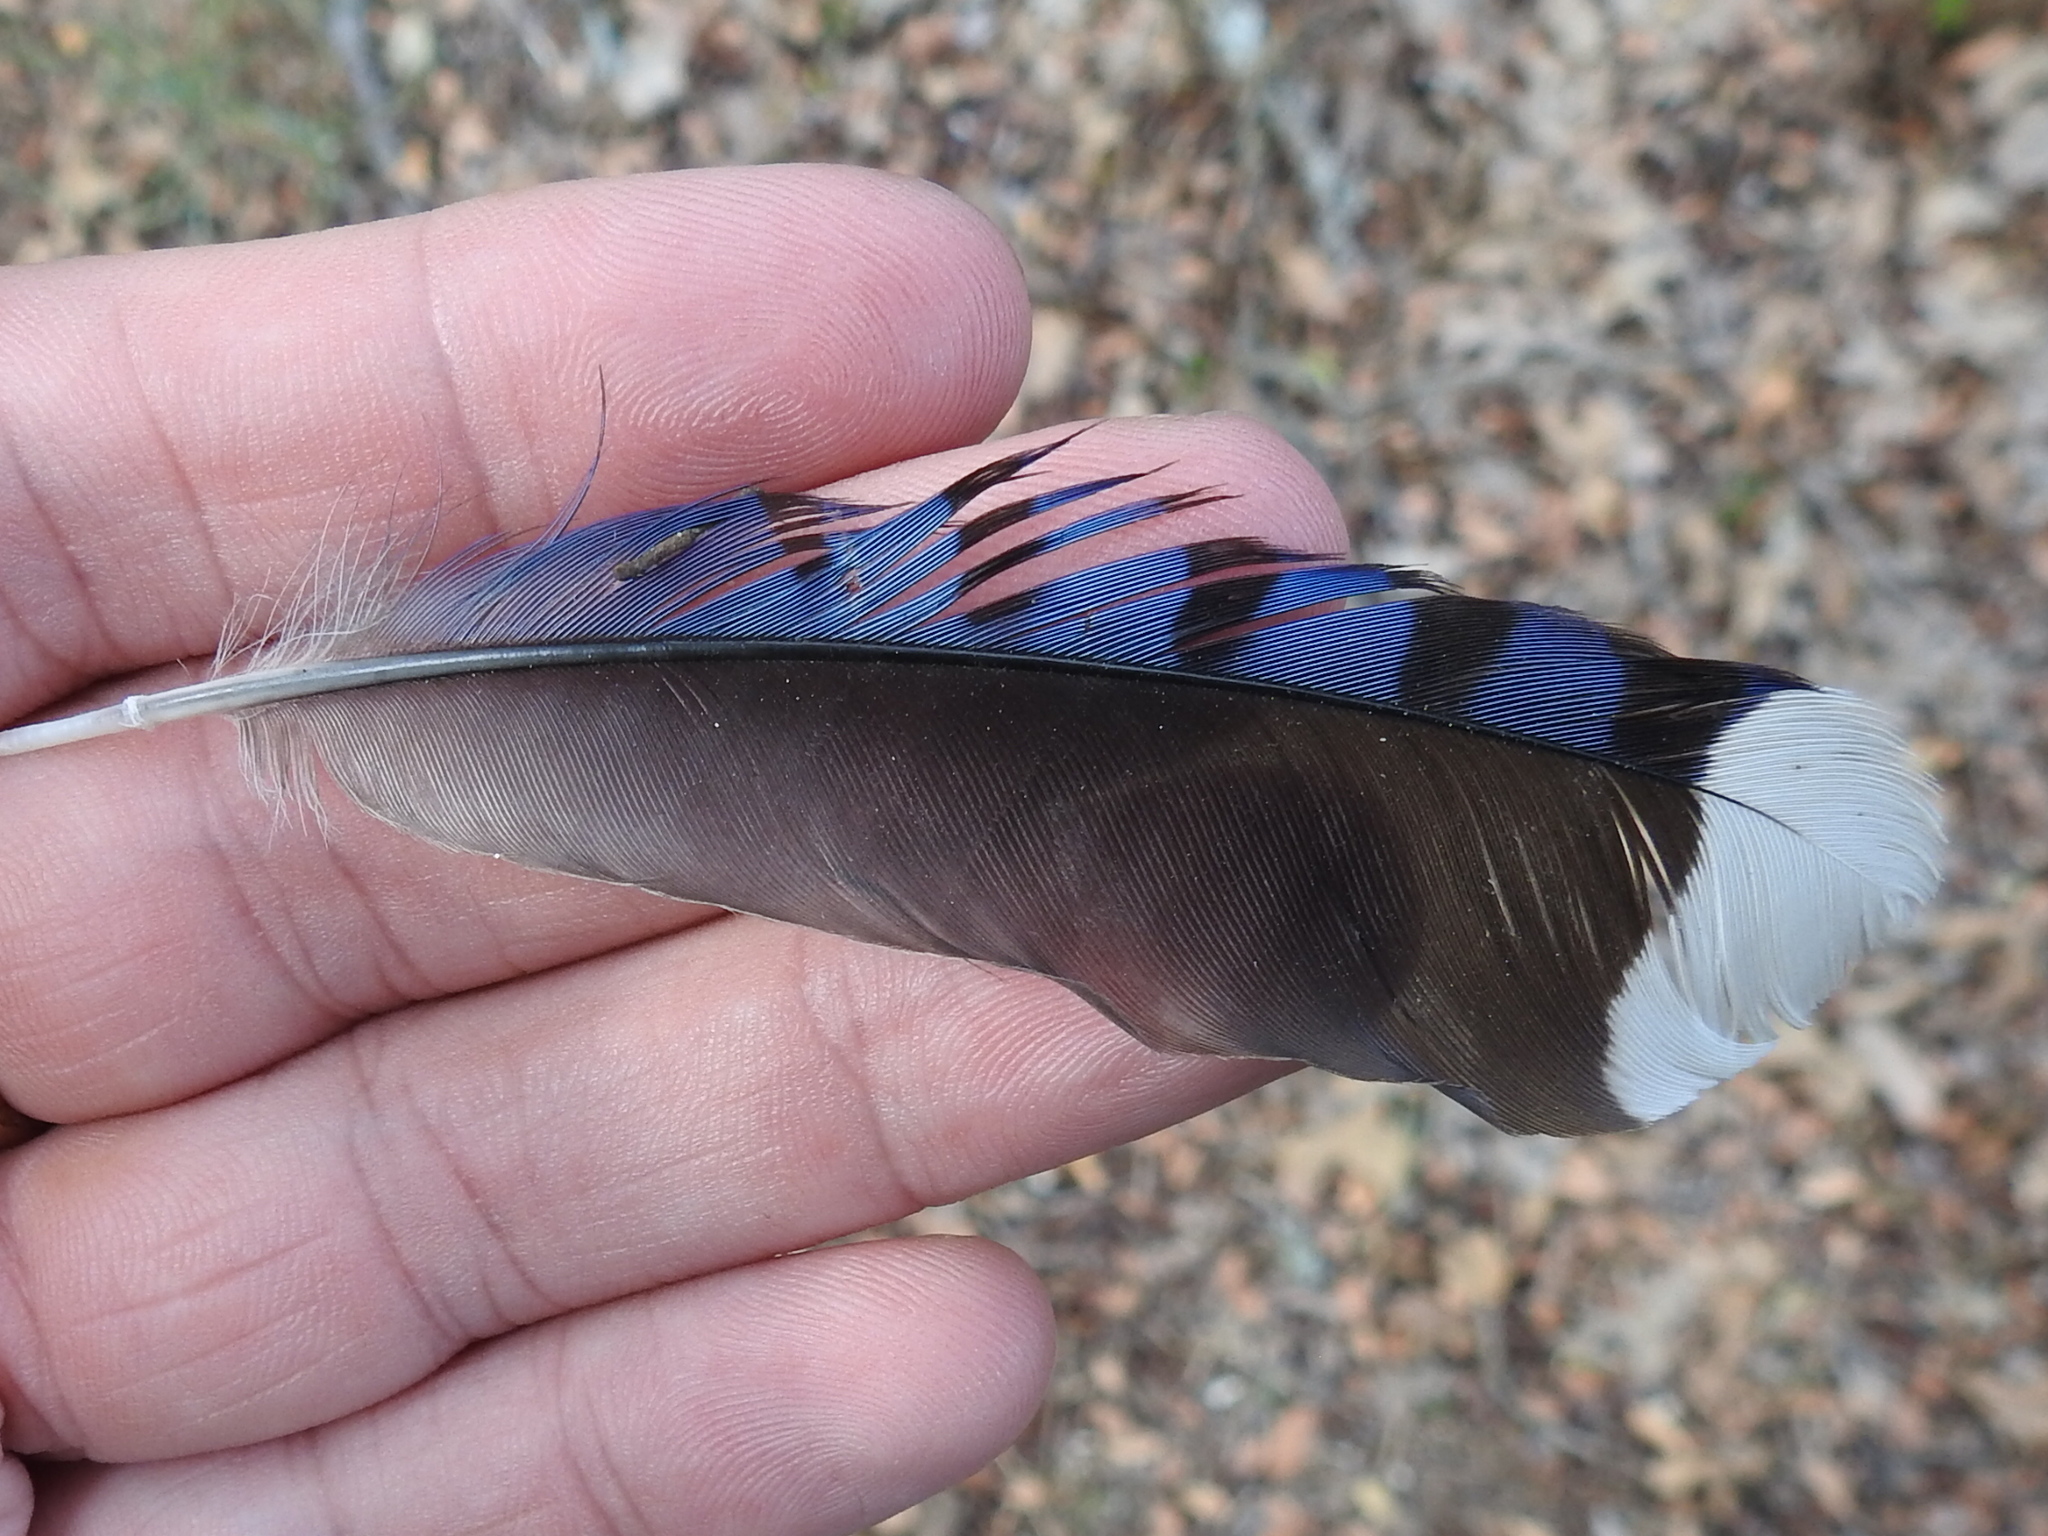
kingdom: Animalia
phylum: Chordata
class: Aves
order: Passeriformes
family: Corvidae
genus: Cyanocitta
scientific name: Cyanocitta cristata
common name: Blue jay
